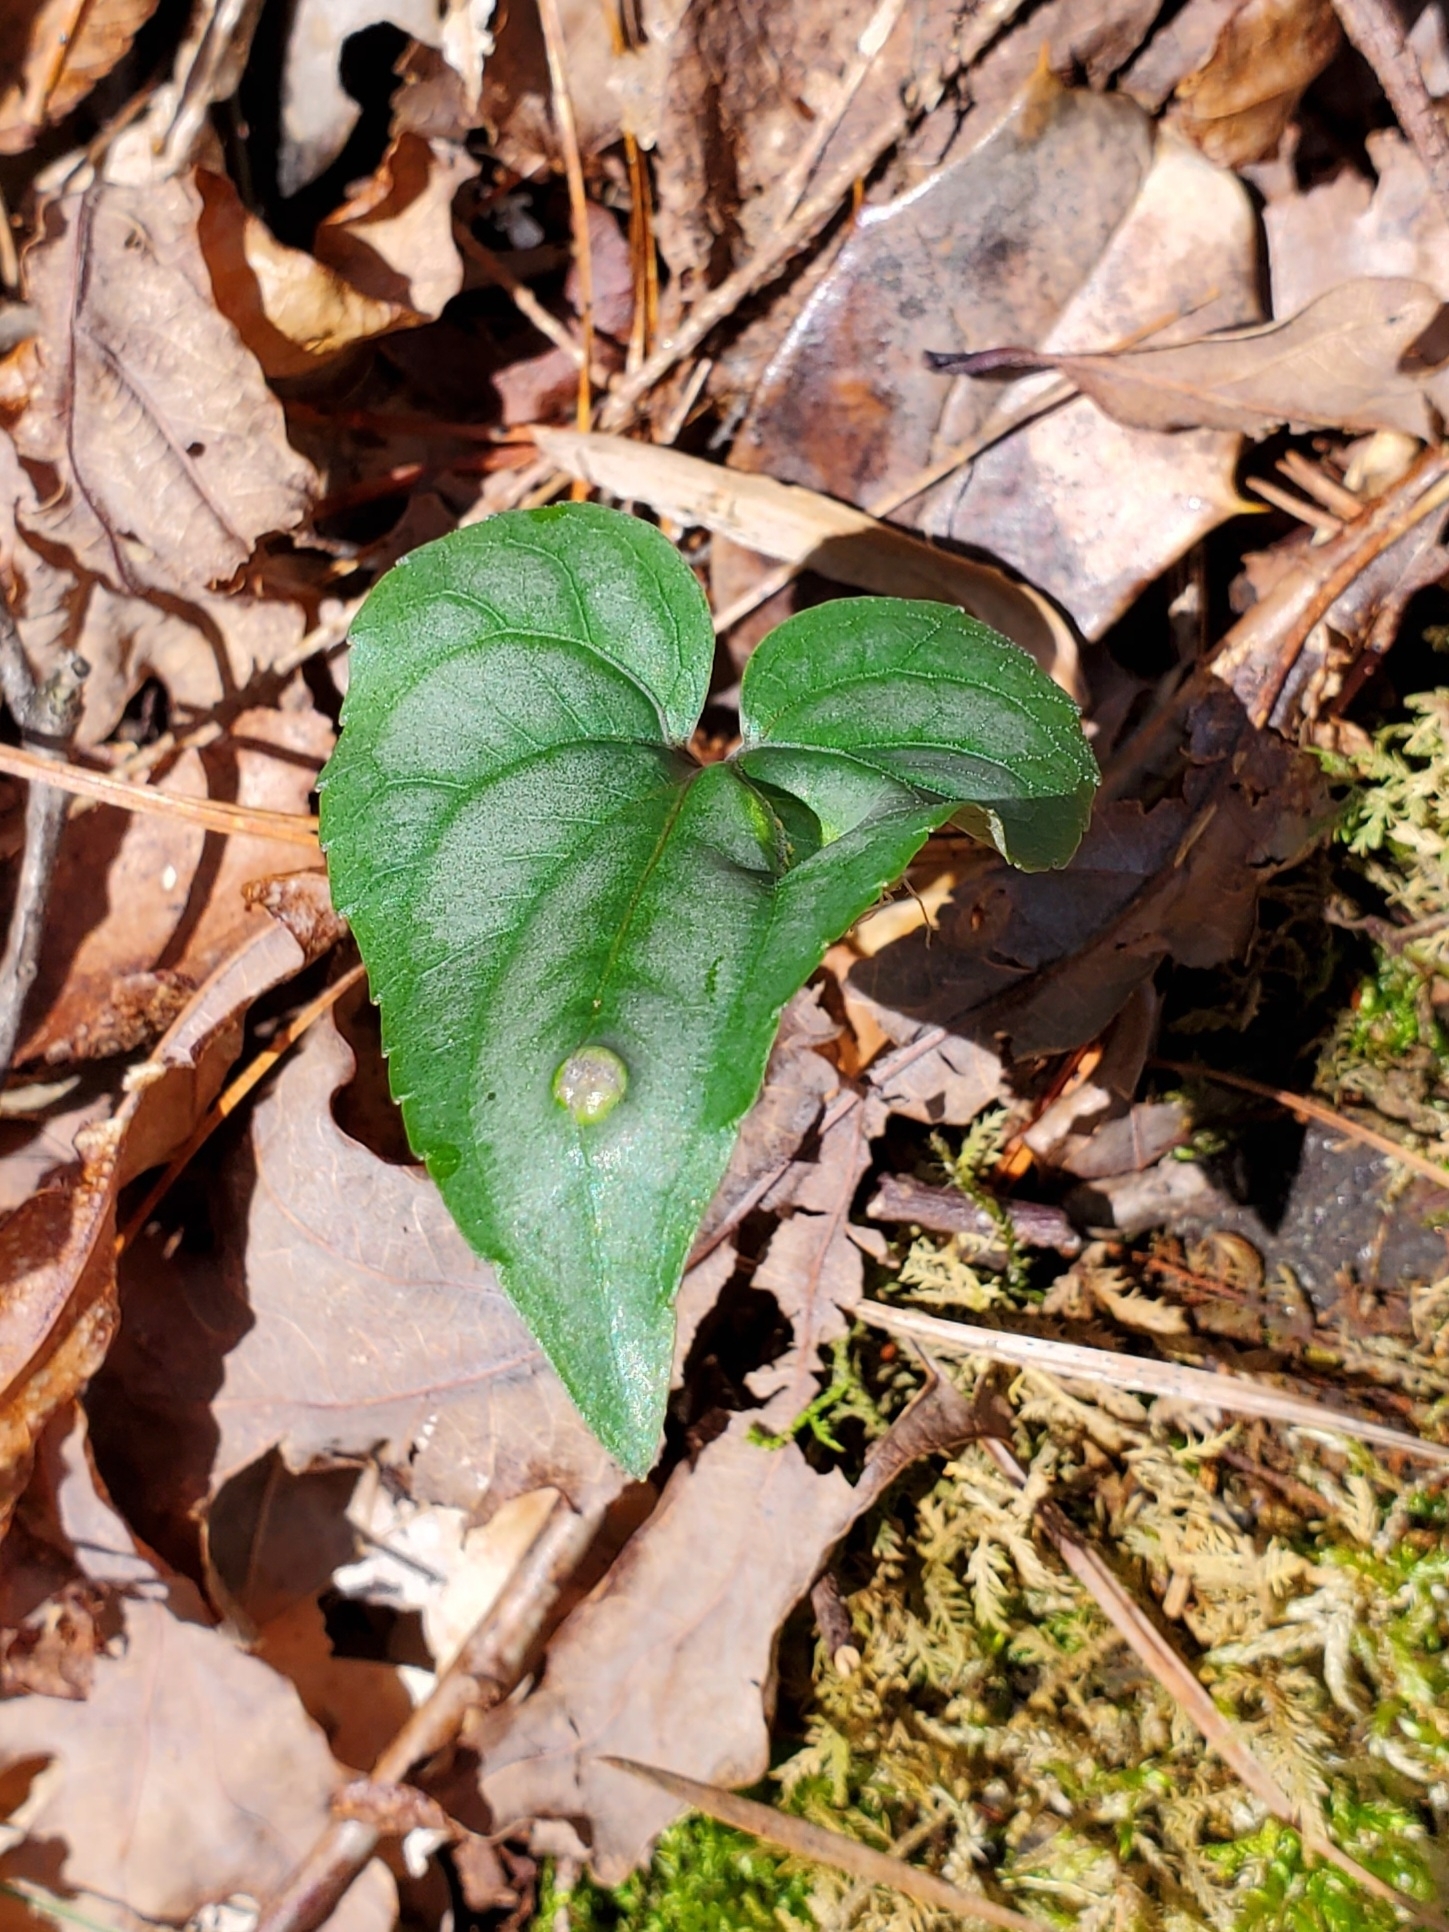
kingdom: Fungi
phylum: Basidiomycota
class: Pucciniomycetes
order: Pucciniales
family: Pucciniaceae
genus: Puccinia
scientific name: Puccinia violae
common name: Violet rust
